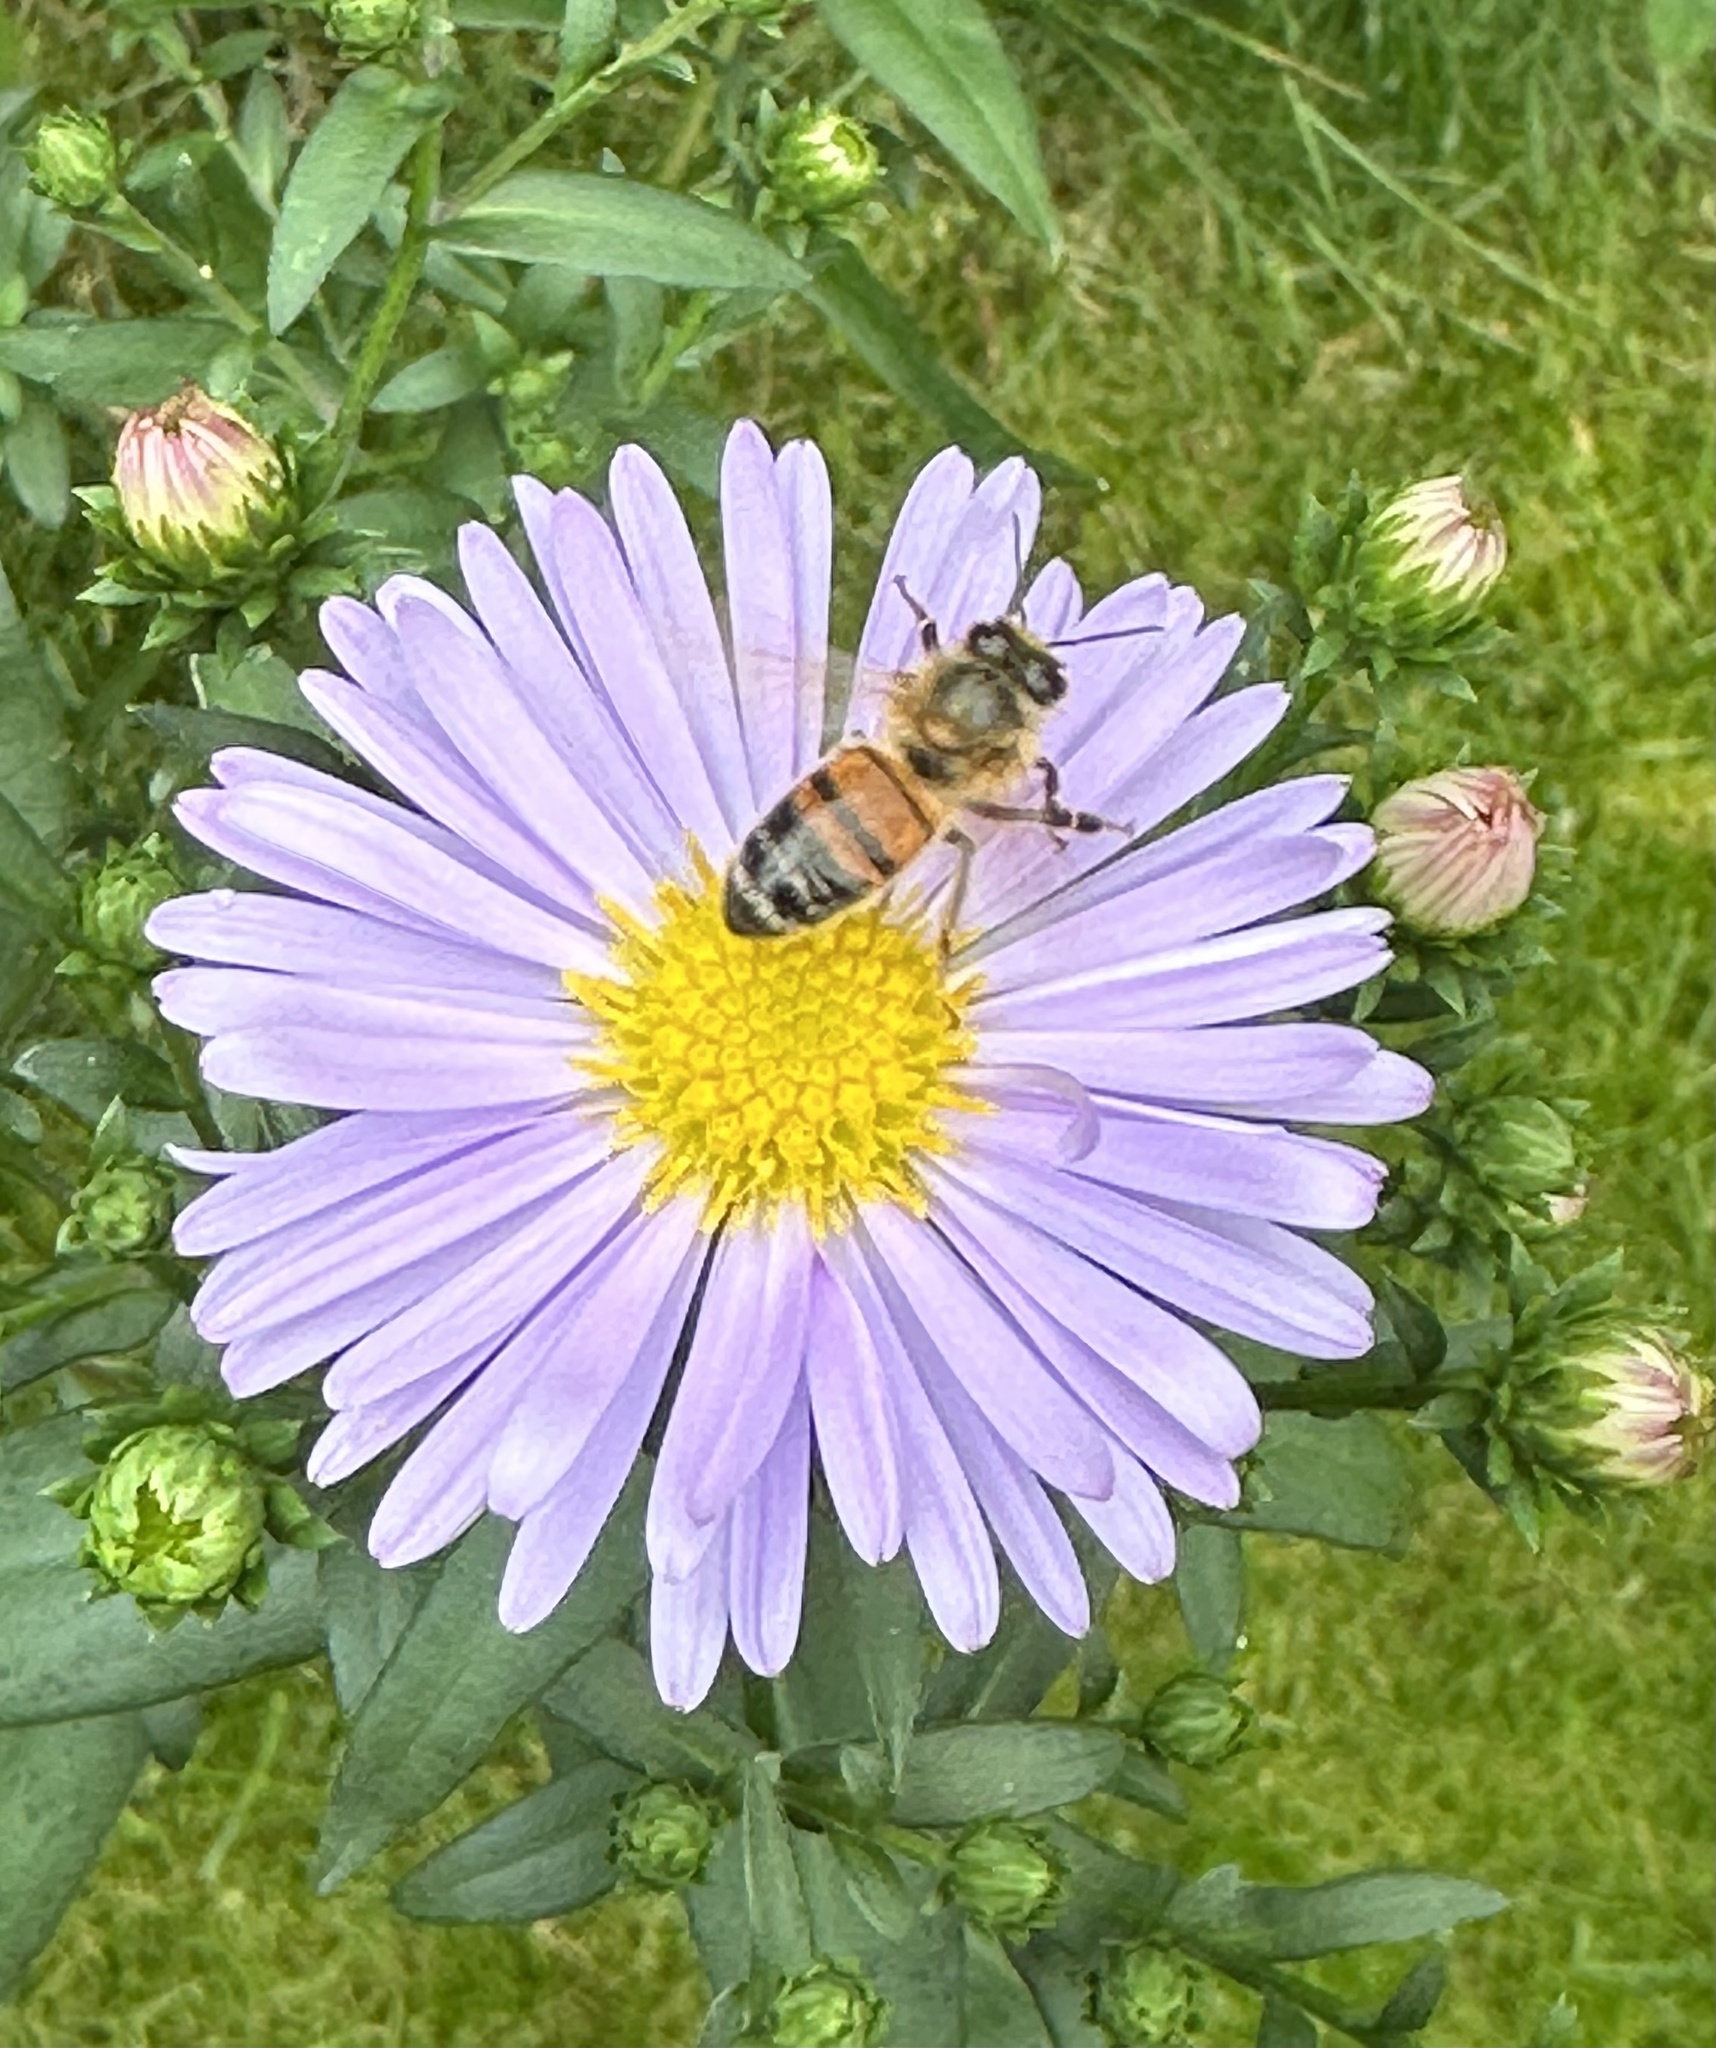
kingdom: Animalia
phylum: Arthropoda
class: Insecta
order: Hymenoptera
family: Apidae
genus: Apis
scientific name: Apis mellifera
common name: Honey bee
